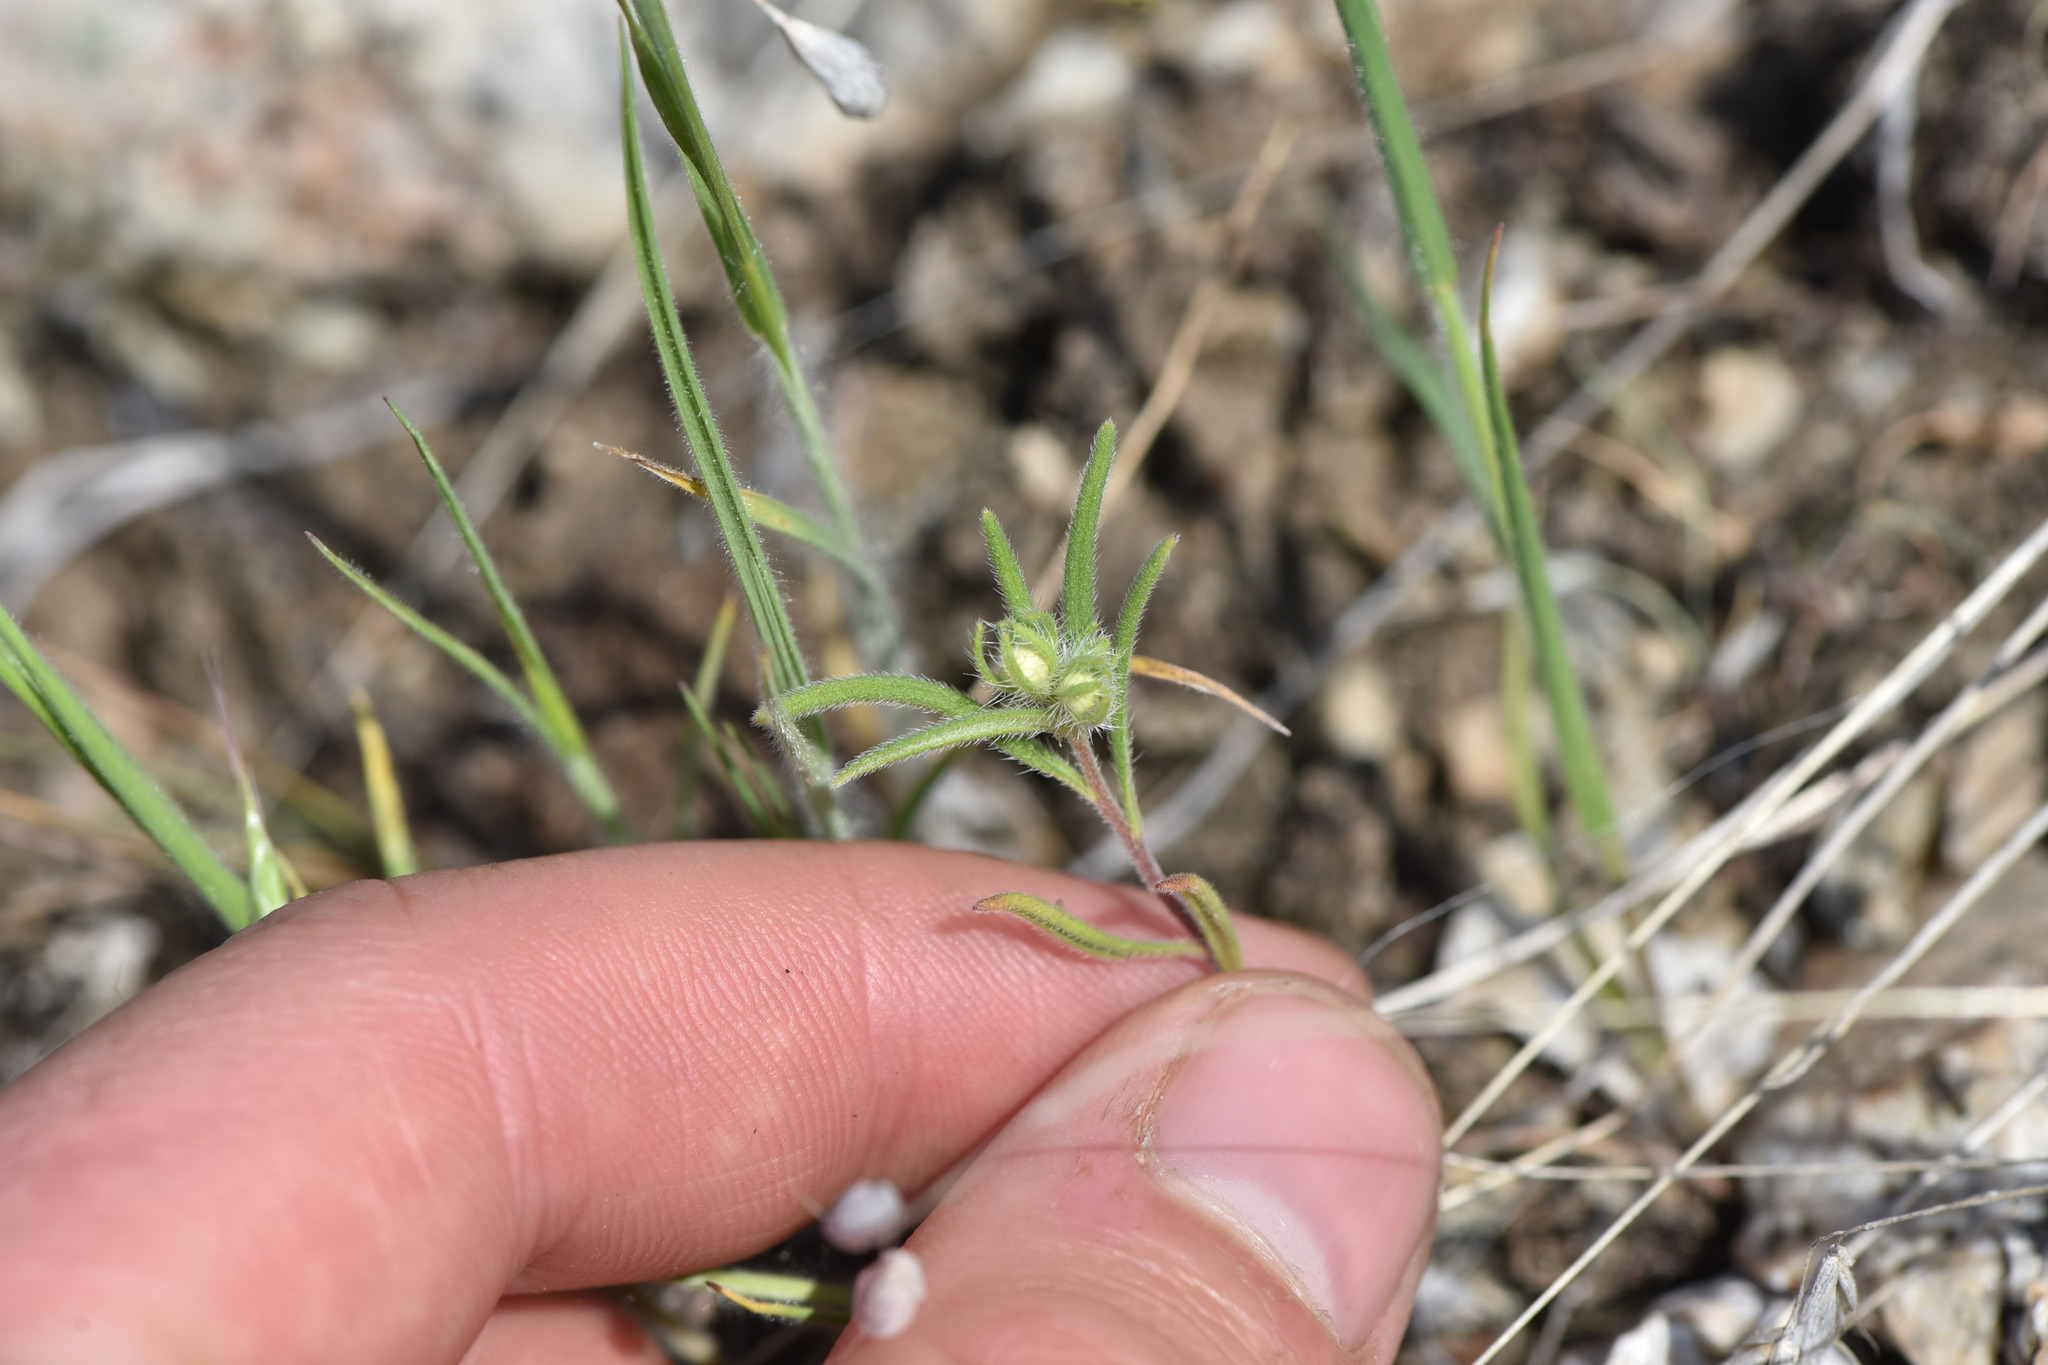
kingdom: Plantae
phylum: Tracheophyta
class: Magnoliopsida
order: Boraginales
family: Hydrophyllaceae
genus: Phacelia
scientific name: Phacelia linearis
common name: Linear-leaved phacelia
